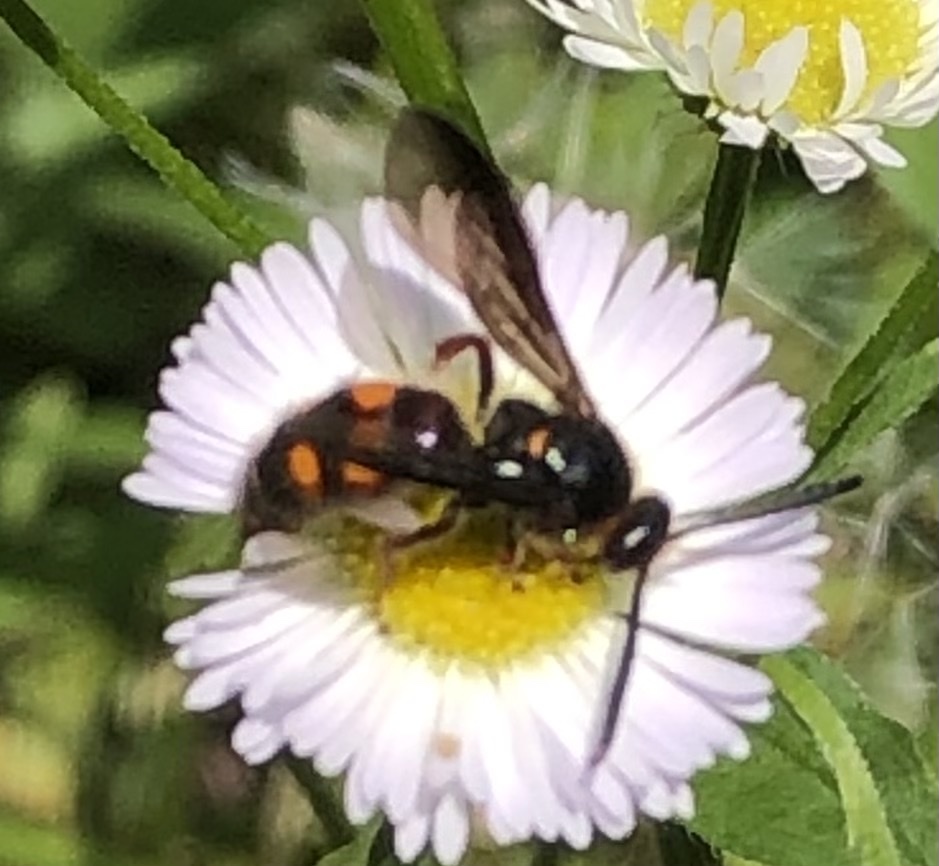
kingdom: Animalia
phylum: Arthropoda
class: Insecta
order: Hymenoptera
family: Scoliidae
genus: Scolia
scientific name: Scolia nobilitata
